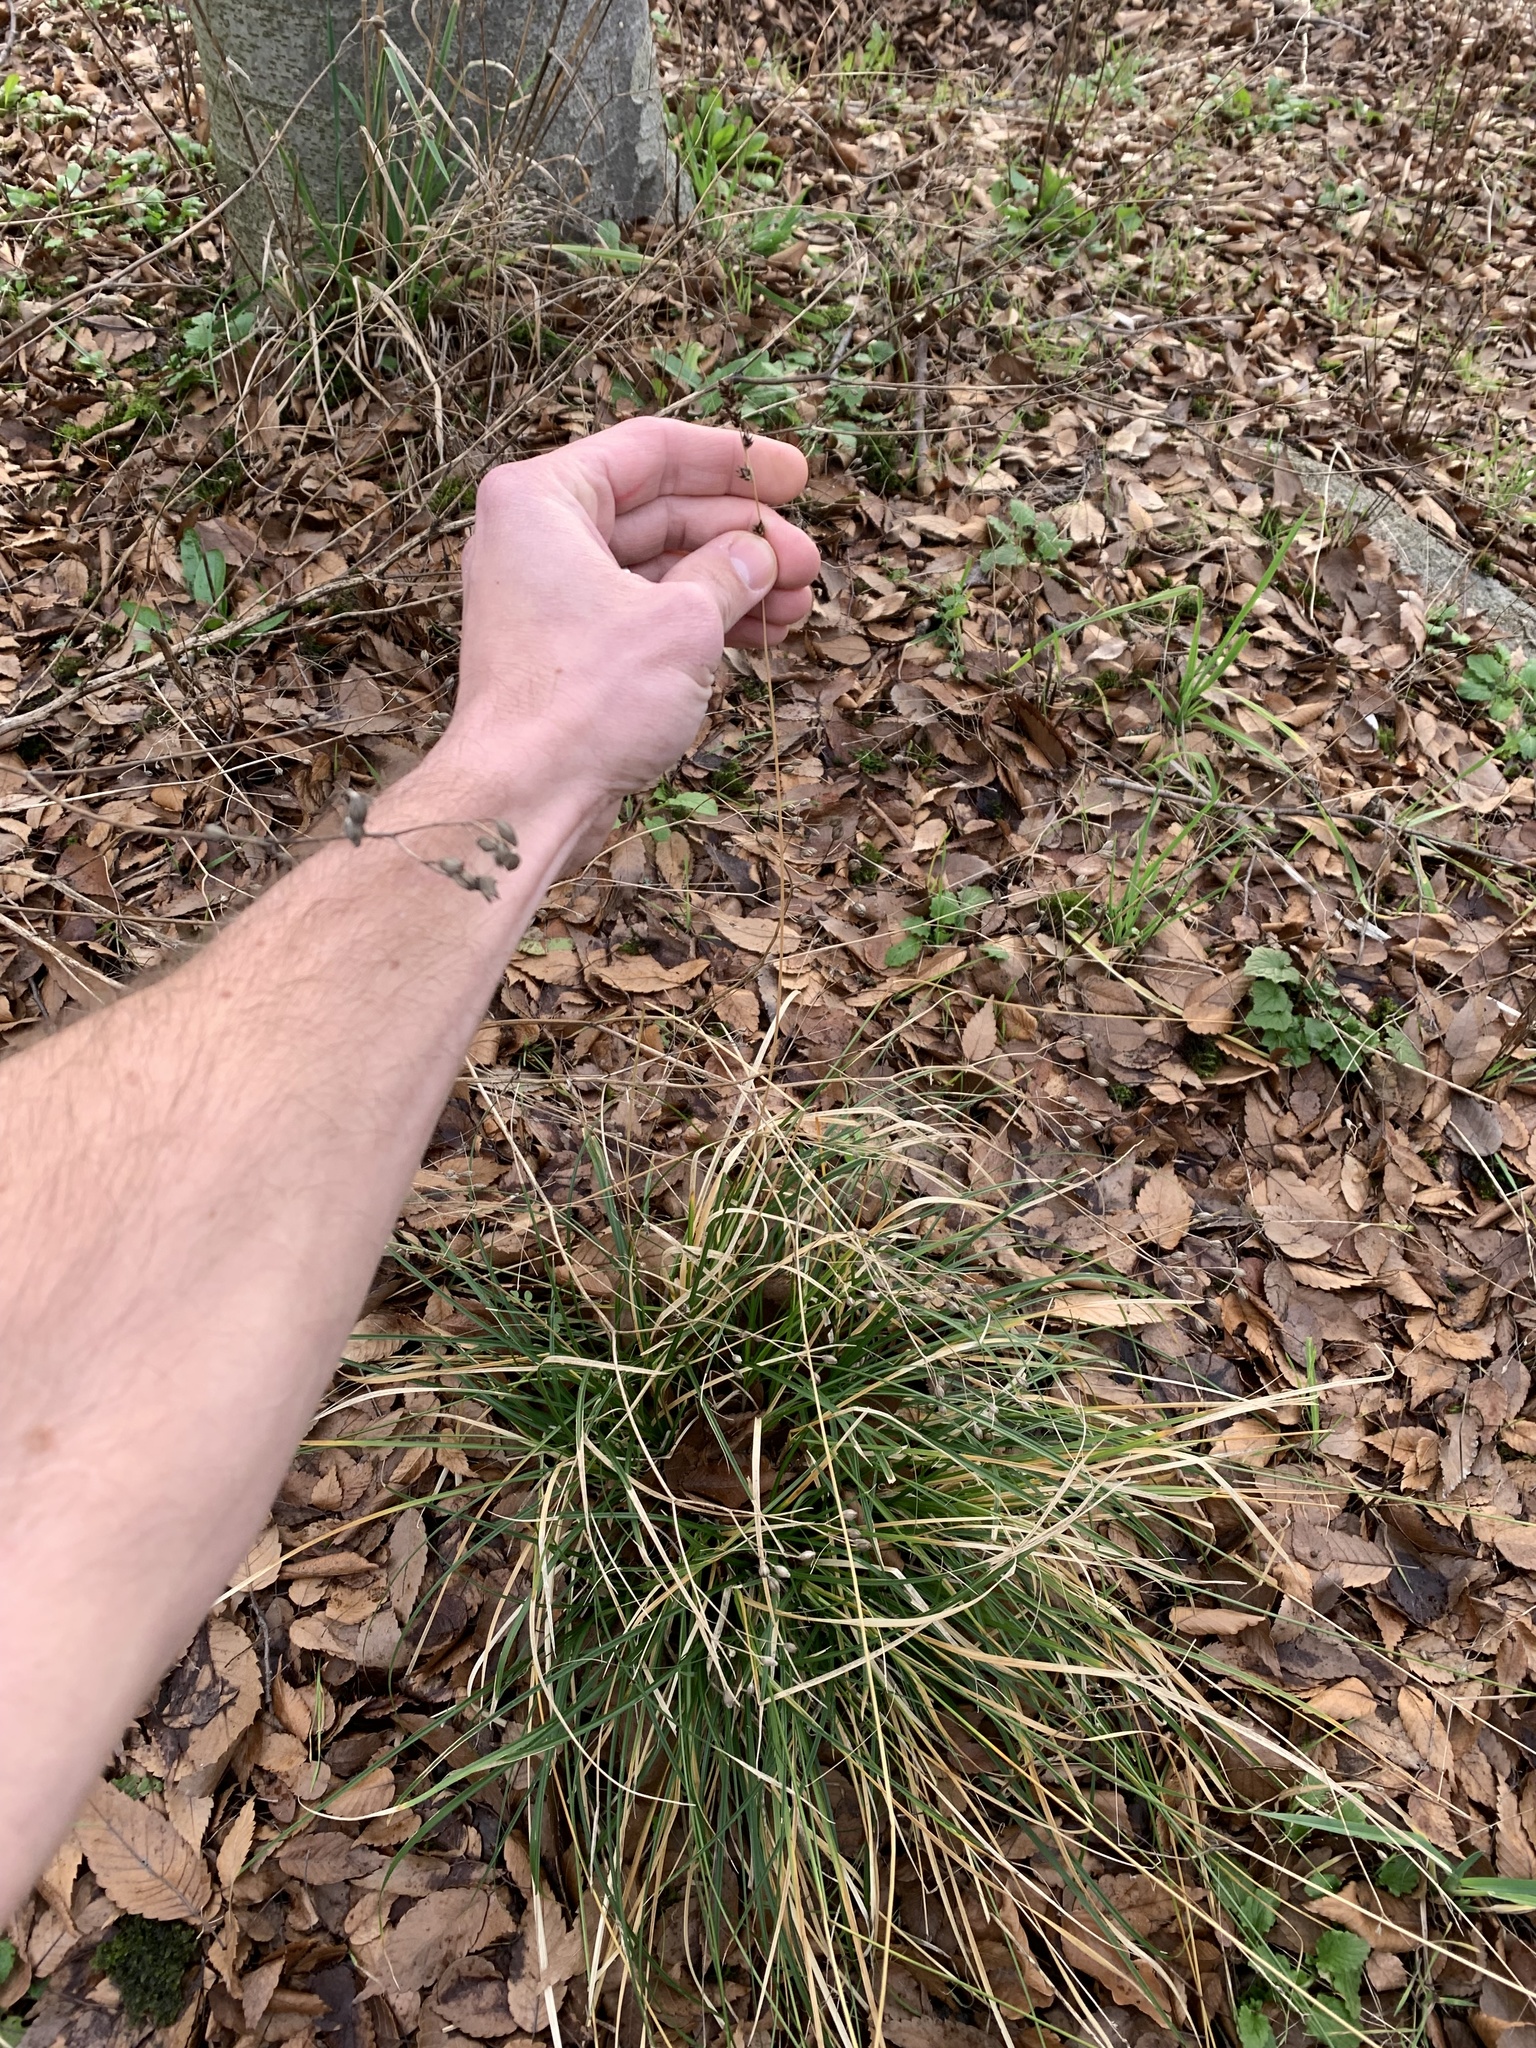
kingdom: Plantae
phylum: Tracheophyta
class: Liliopsida
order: Poales
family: Cyperaceae
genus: Carex
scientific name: Carex leersii
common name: Leers' sedge
